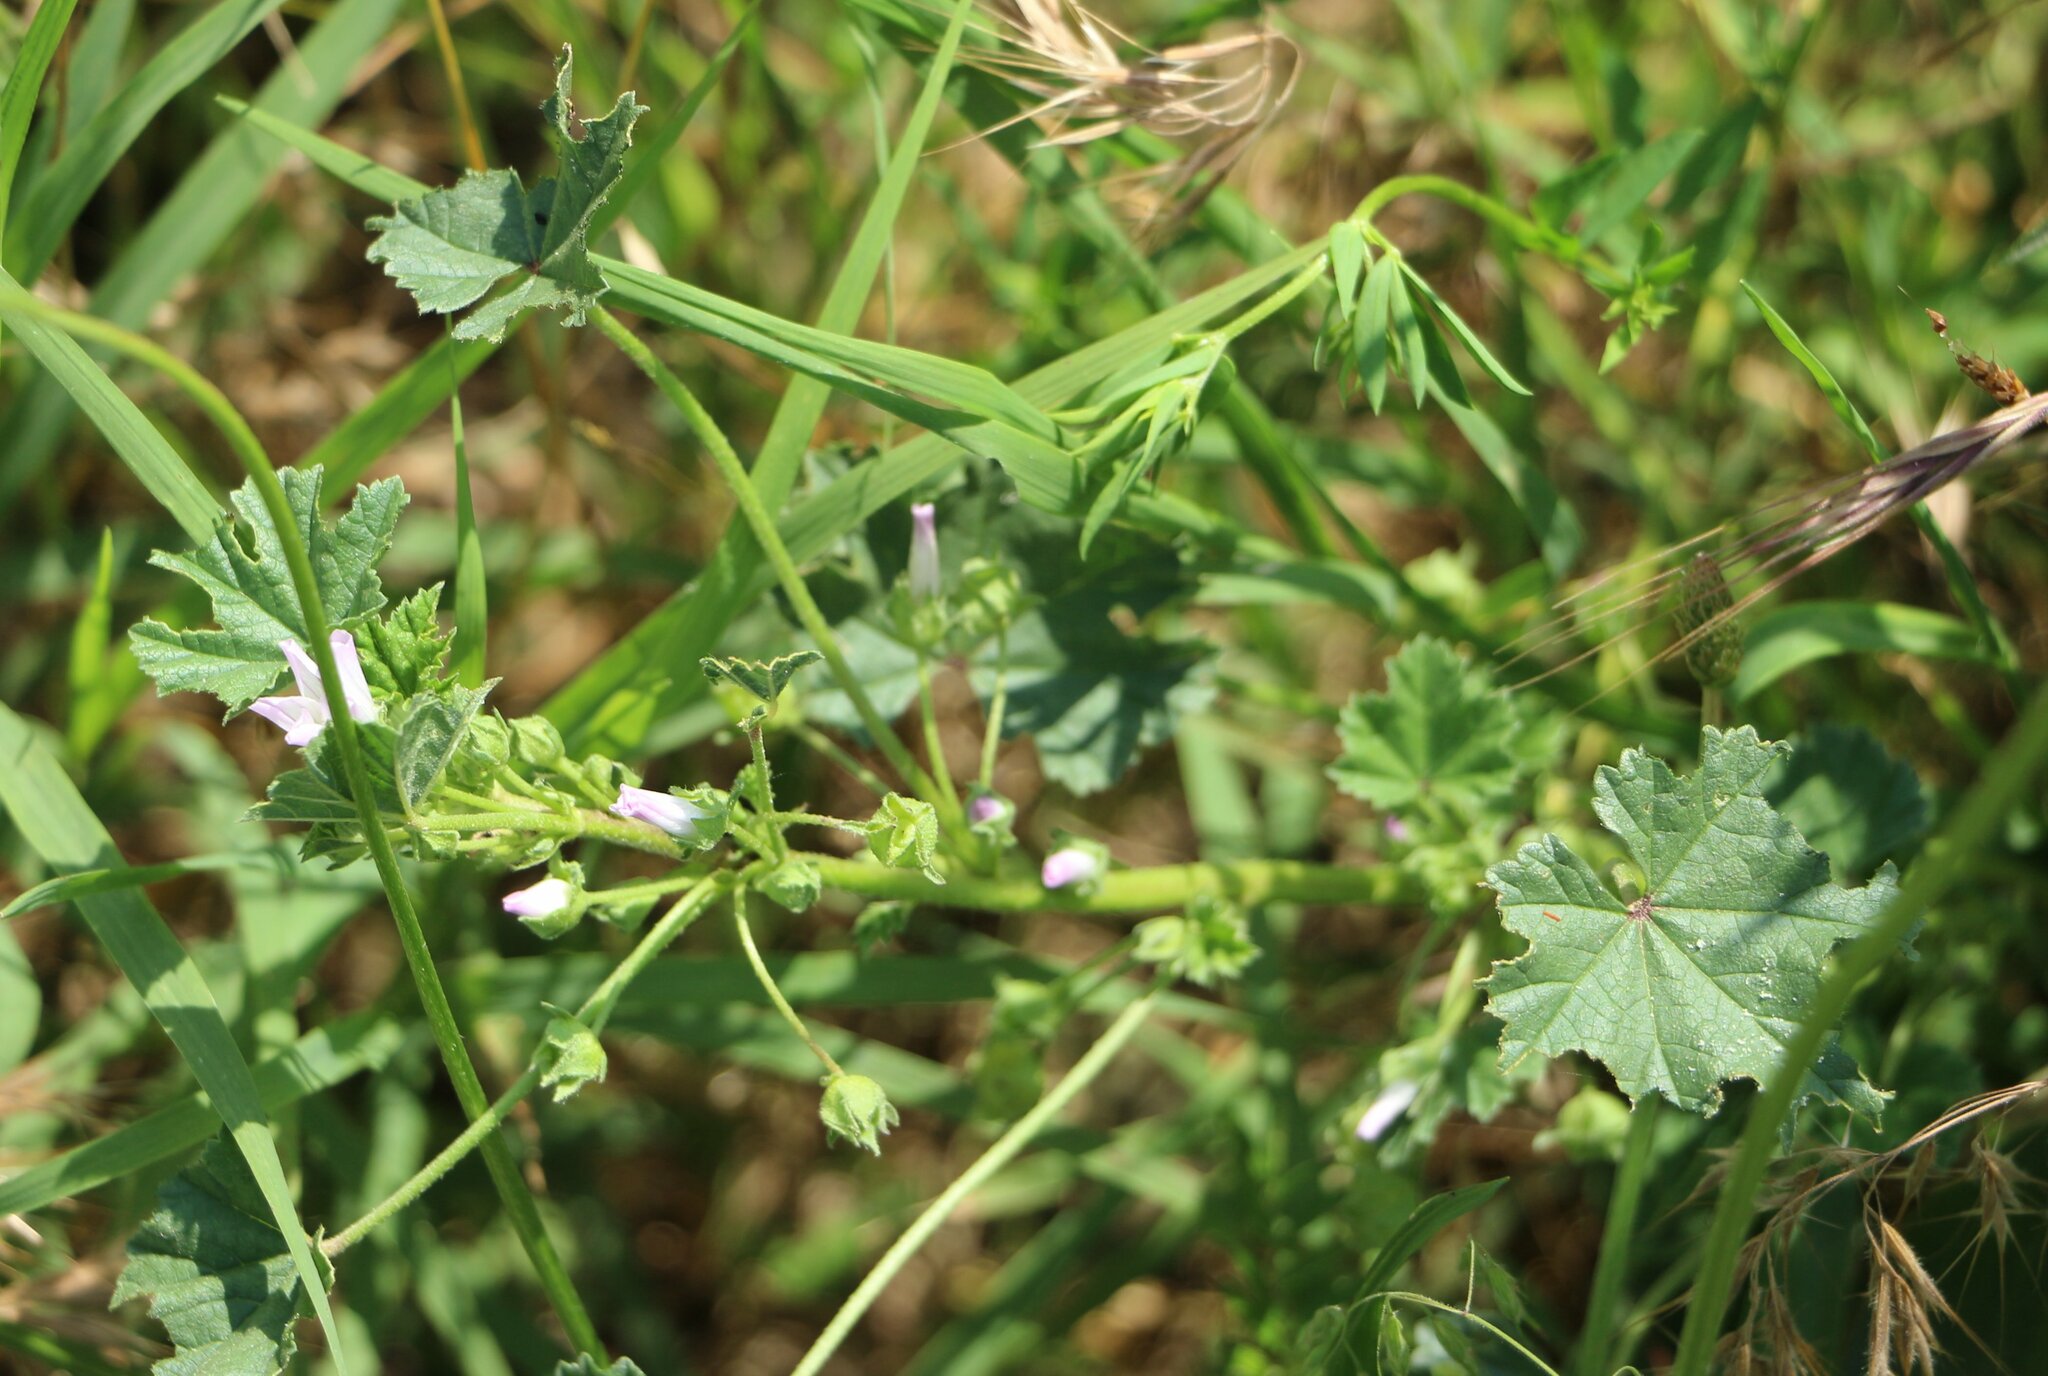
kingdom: Plantae
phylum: Tracheophyta
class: Magnoliopsida
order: Malvales
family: Malvaceae
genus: Malva
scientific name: Malva neglecta
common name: Common mallow
